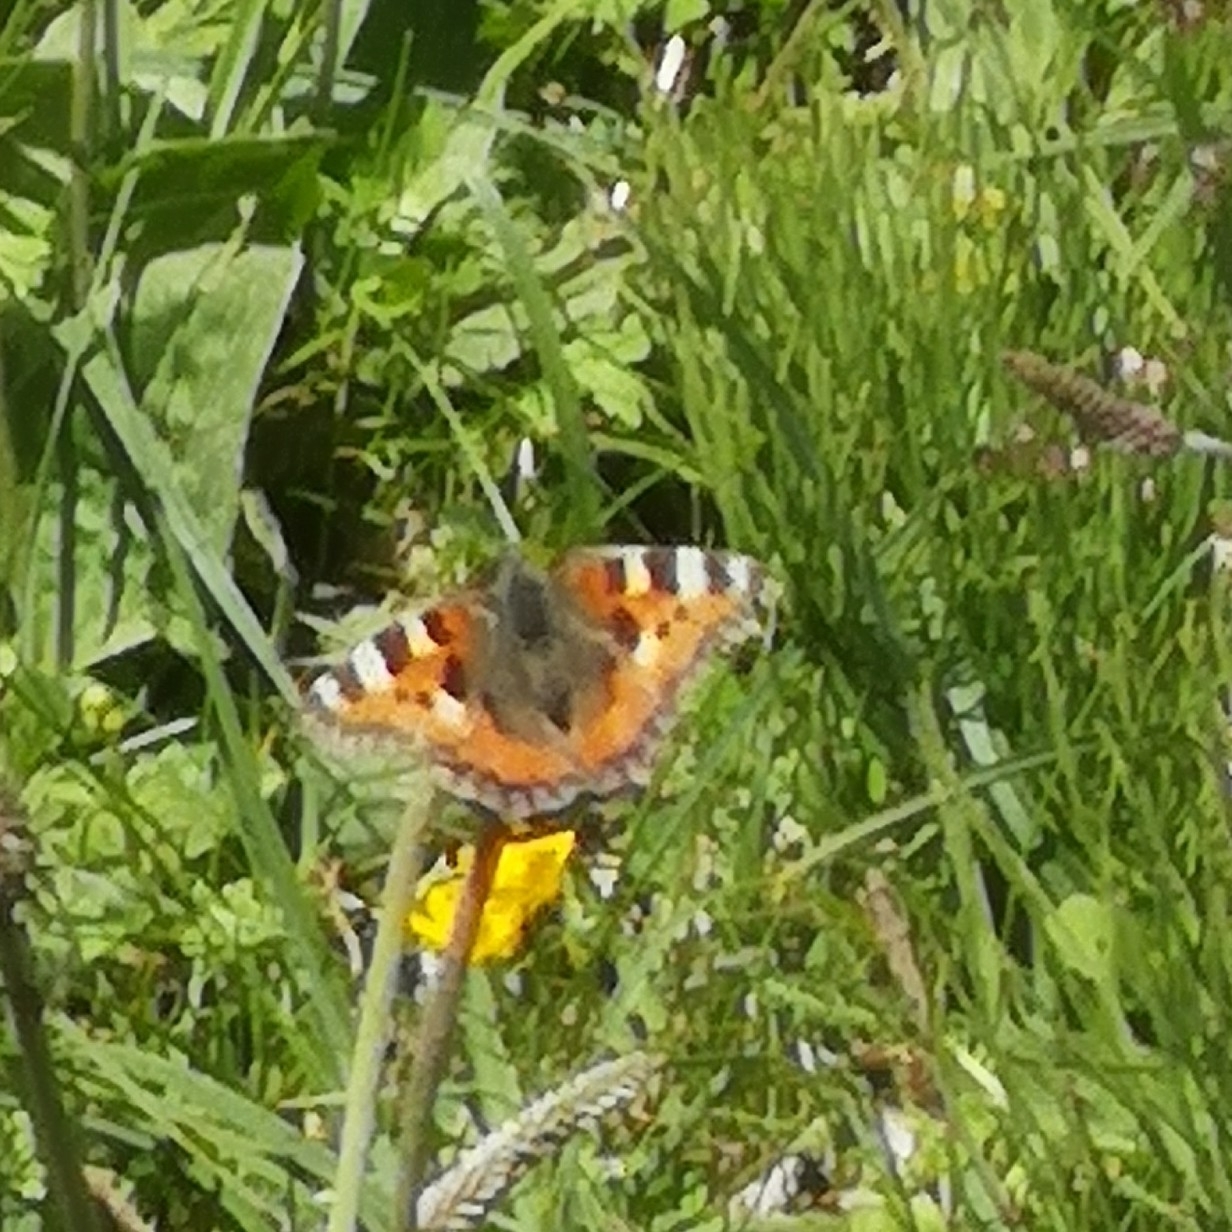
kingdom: Animalia
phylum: Arthropoda
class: Insecta
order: Lepidoptera
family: Nymphalidae
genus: Aglais
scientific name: Aglais urticae
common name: Small tortoiseshell
